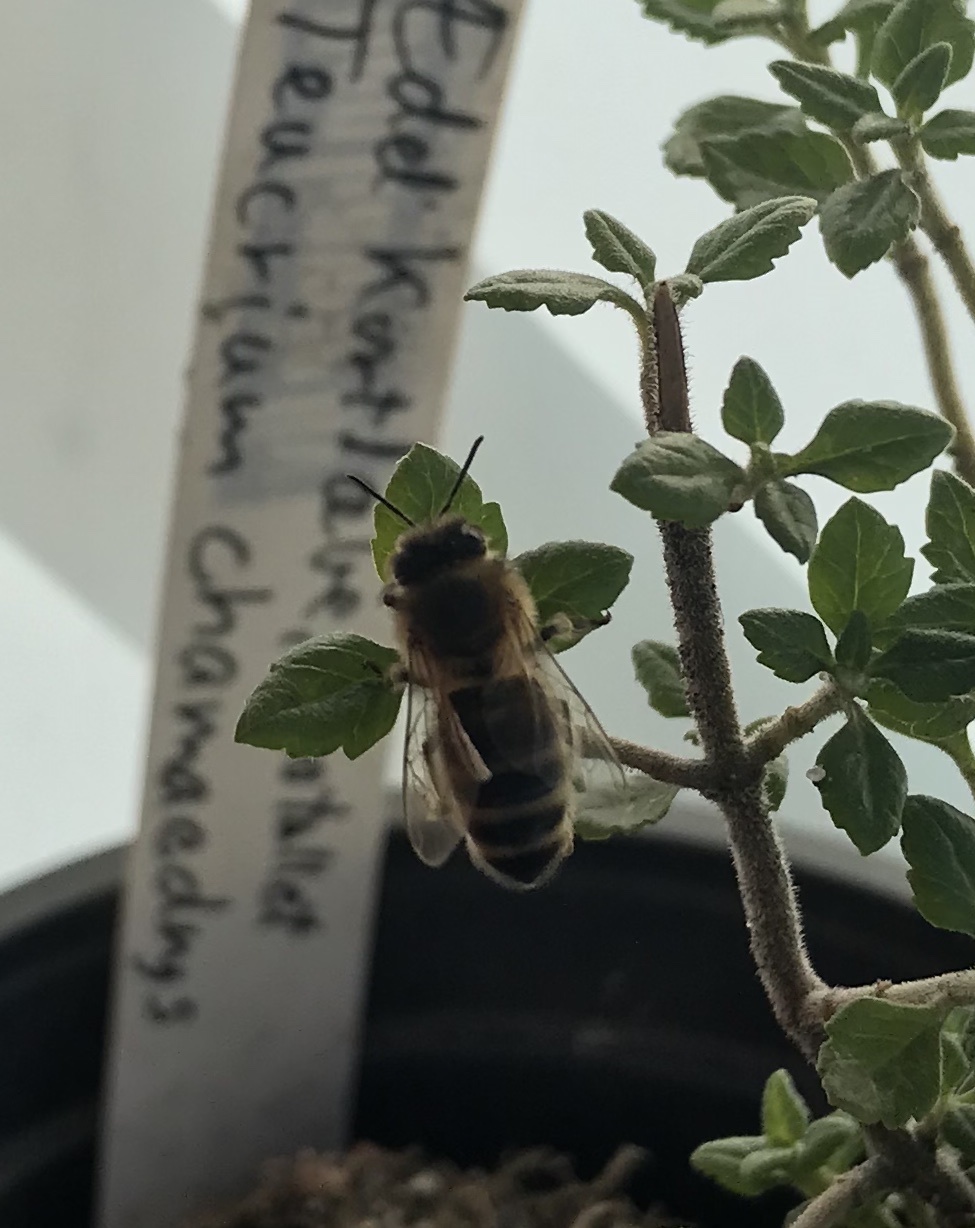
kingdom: Animalia
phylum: Arthropoda
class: Insecta
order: Hymenoptera
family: Apidae
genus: Apis
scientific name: Apis mellifera
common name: Honey bee
